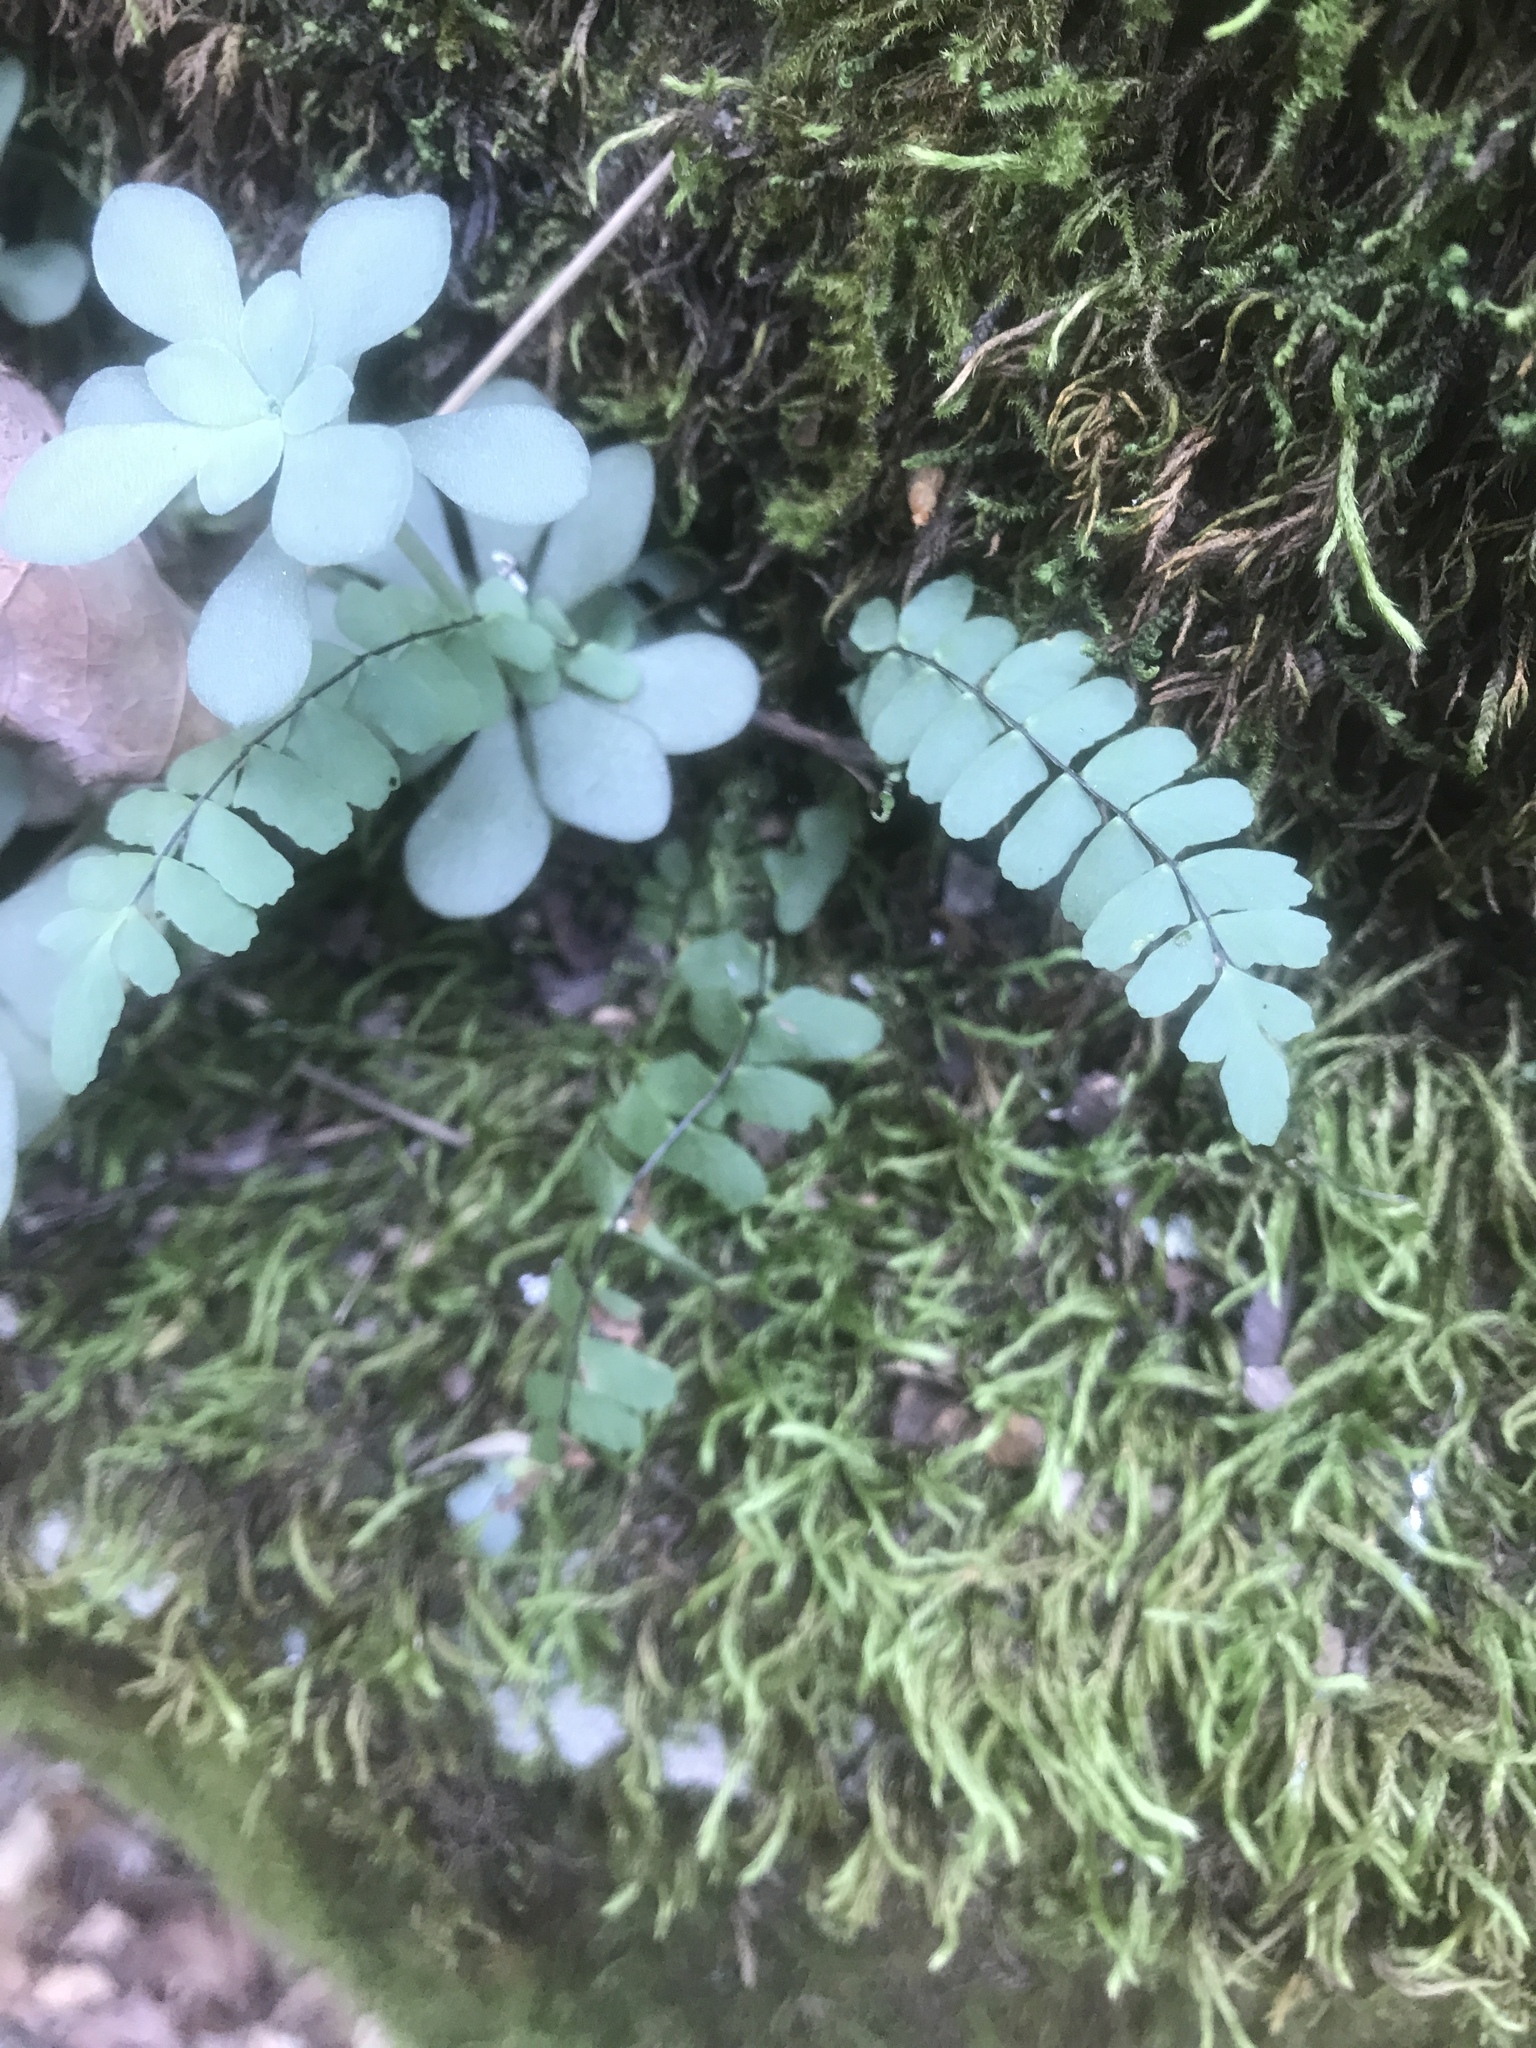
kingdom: Plantae
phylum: Tracheophyta
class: Polypodiopsida
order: Polypodiales
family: Aspleniaceae
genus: Asplenium
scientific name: Asplenium resiliens
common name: Blackstem spleenwort
